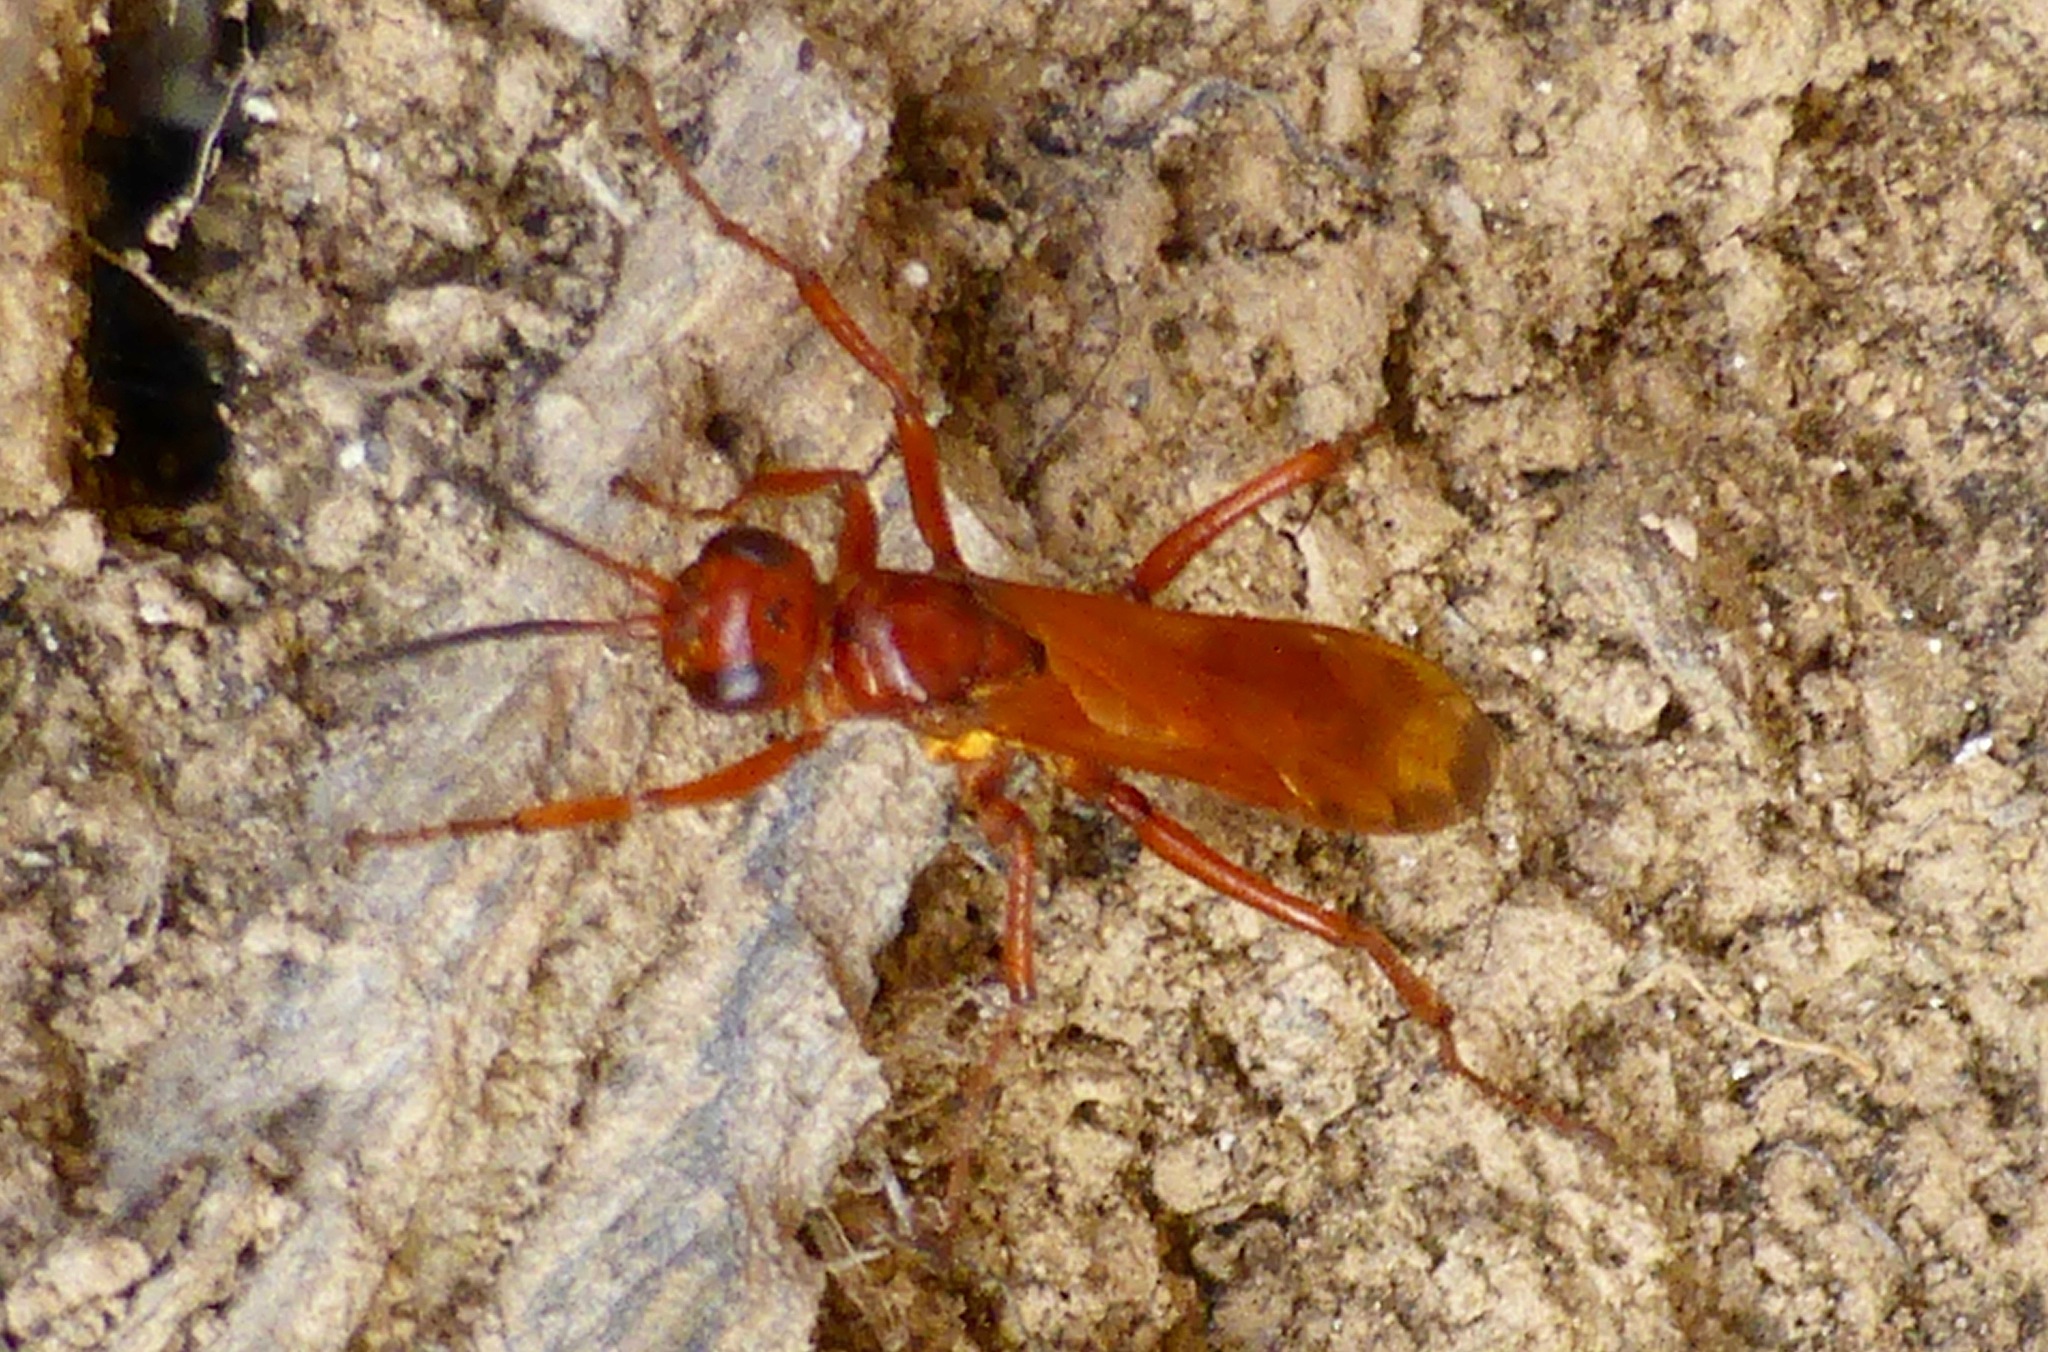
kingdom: Animalia
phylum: Arthropoda
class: Insecta
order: Hymenoptera
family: Pompilidae
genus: Sphictostethus
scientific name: Sphictostethus nitidus
